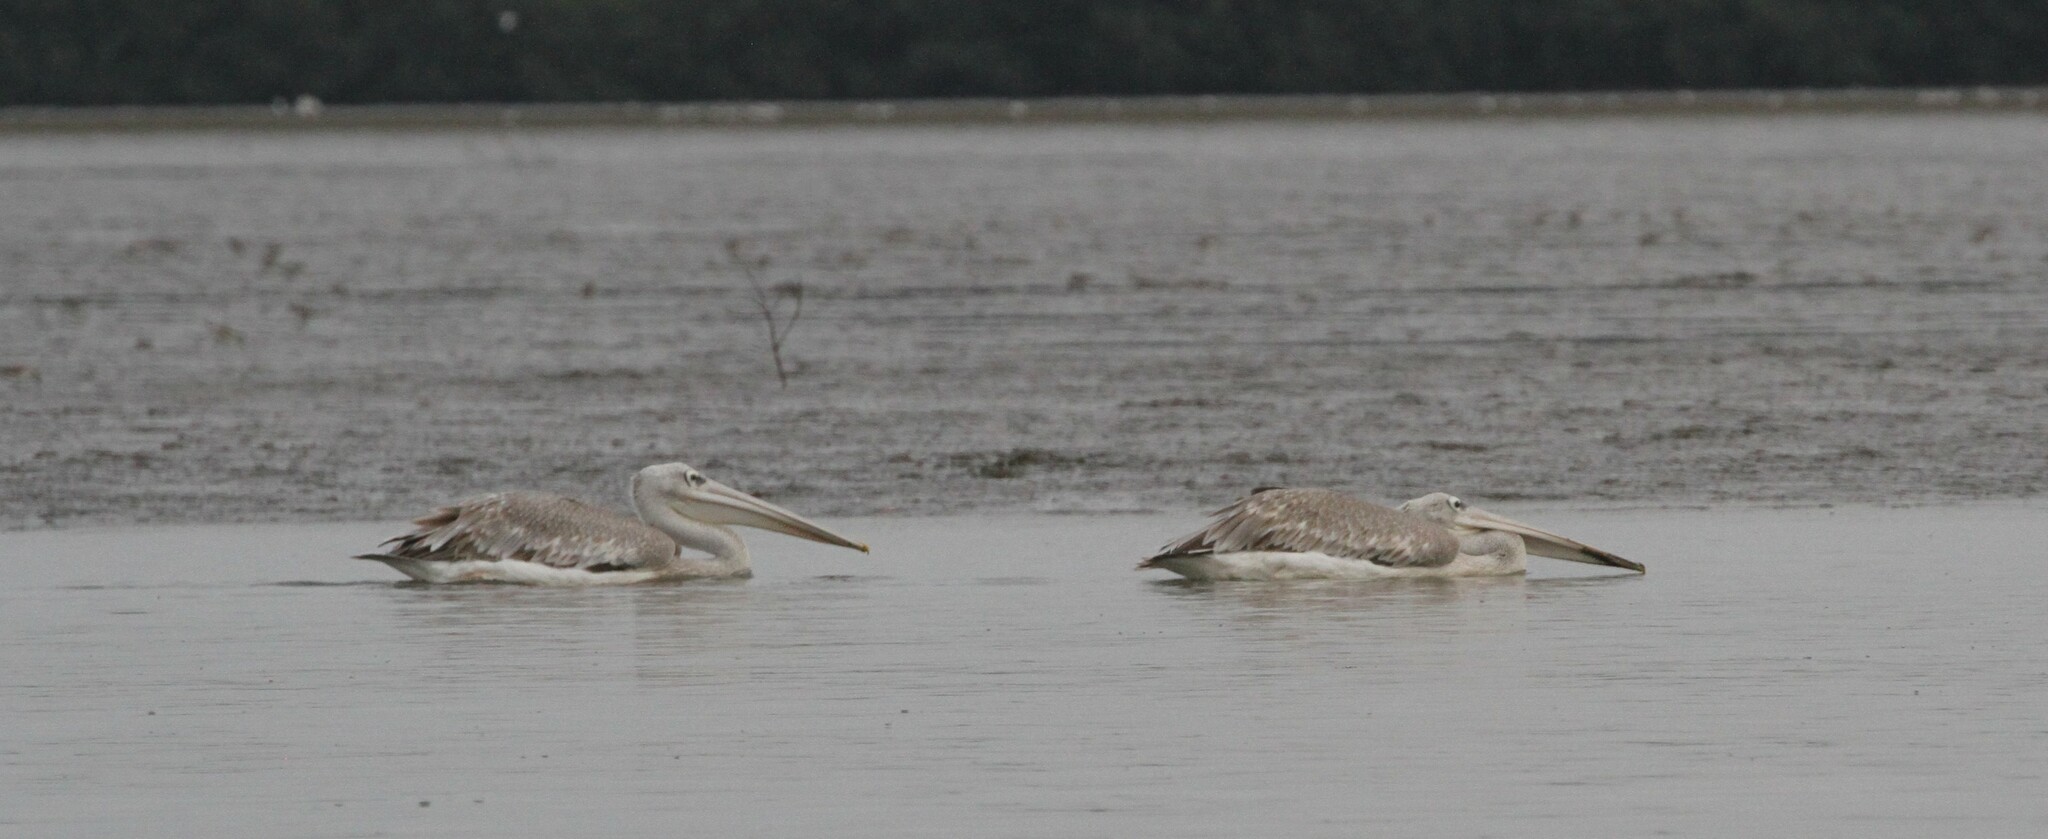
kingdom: Animalia
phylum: Chordata
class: Aves
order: Pelecaniformes
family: Pelecanidae
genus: Pelecanus
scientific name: Pelecanus rufescens
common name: Pink-backed pelican
